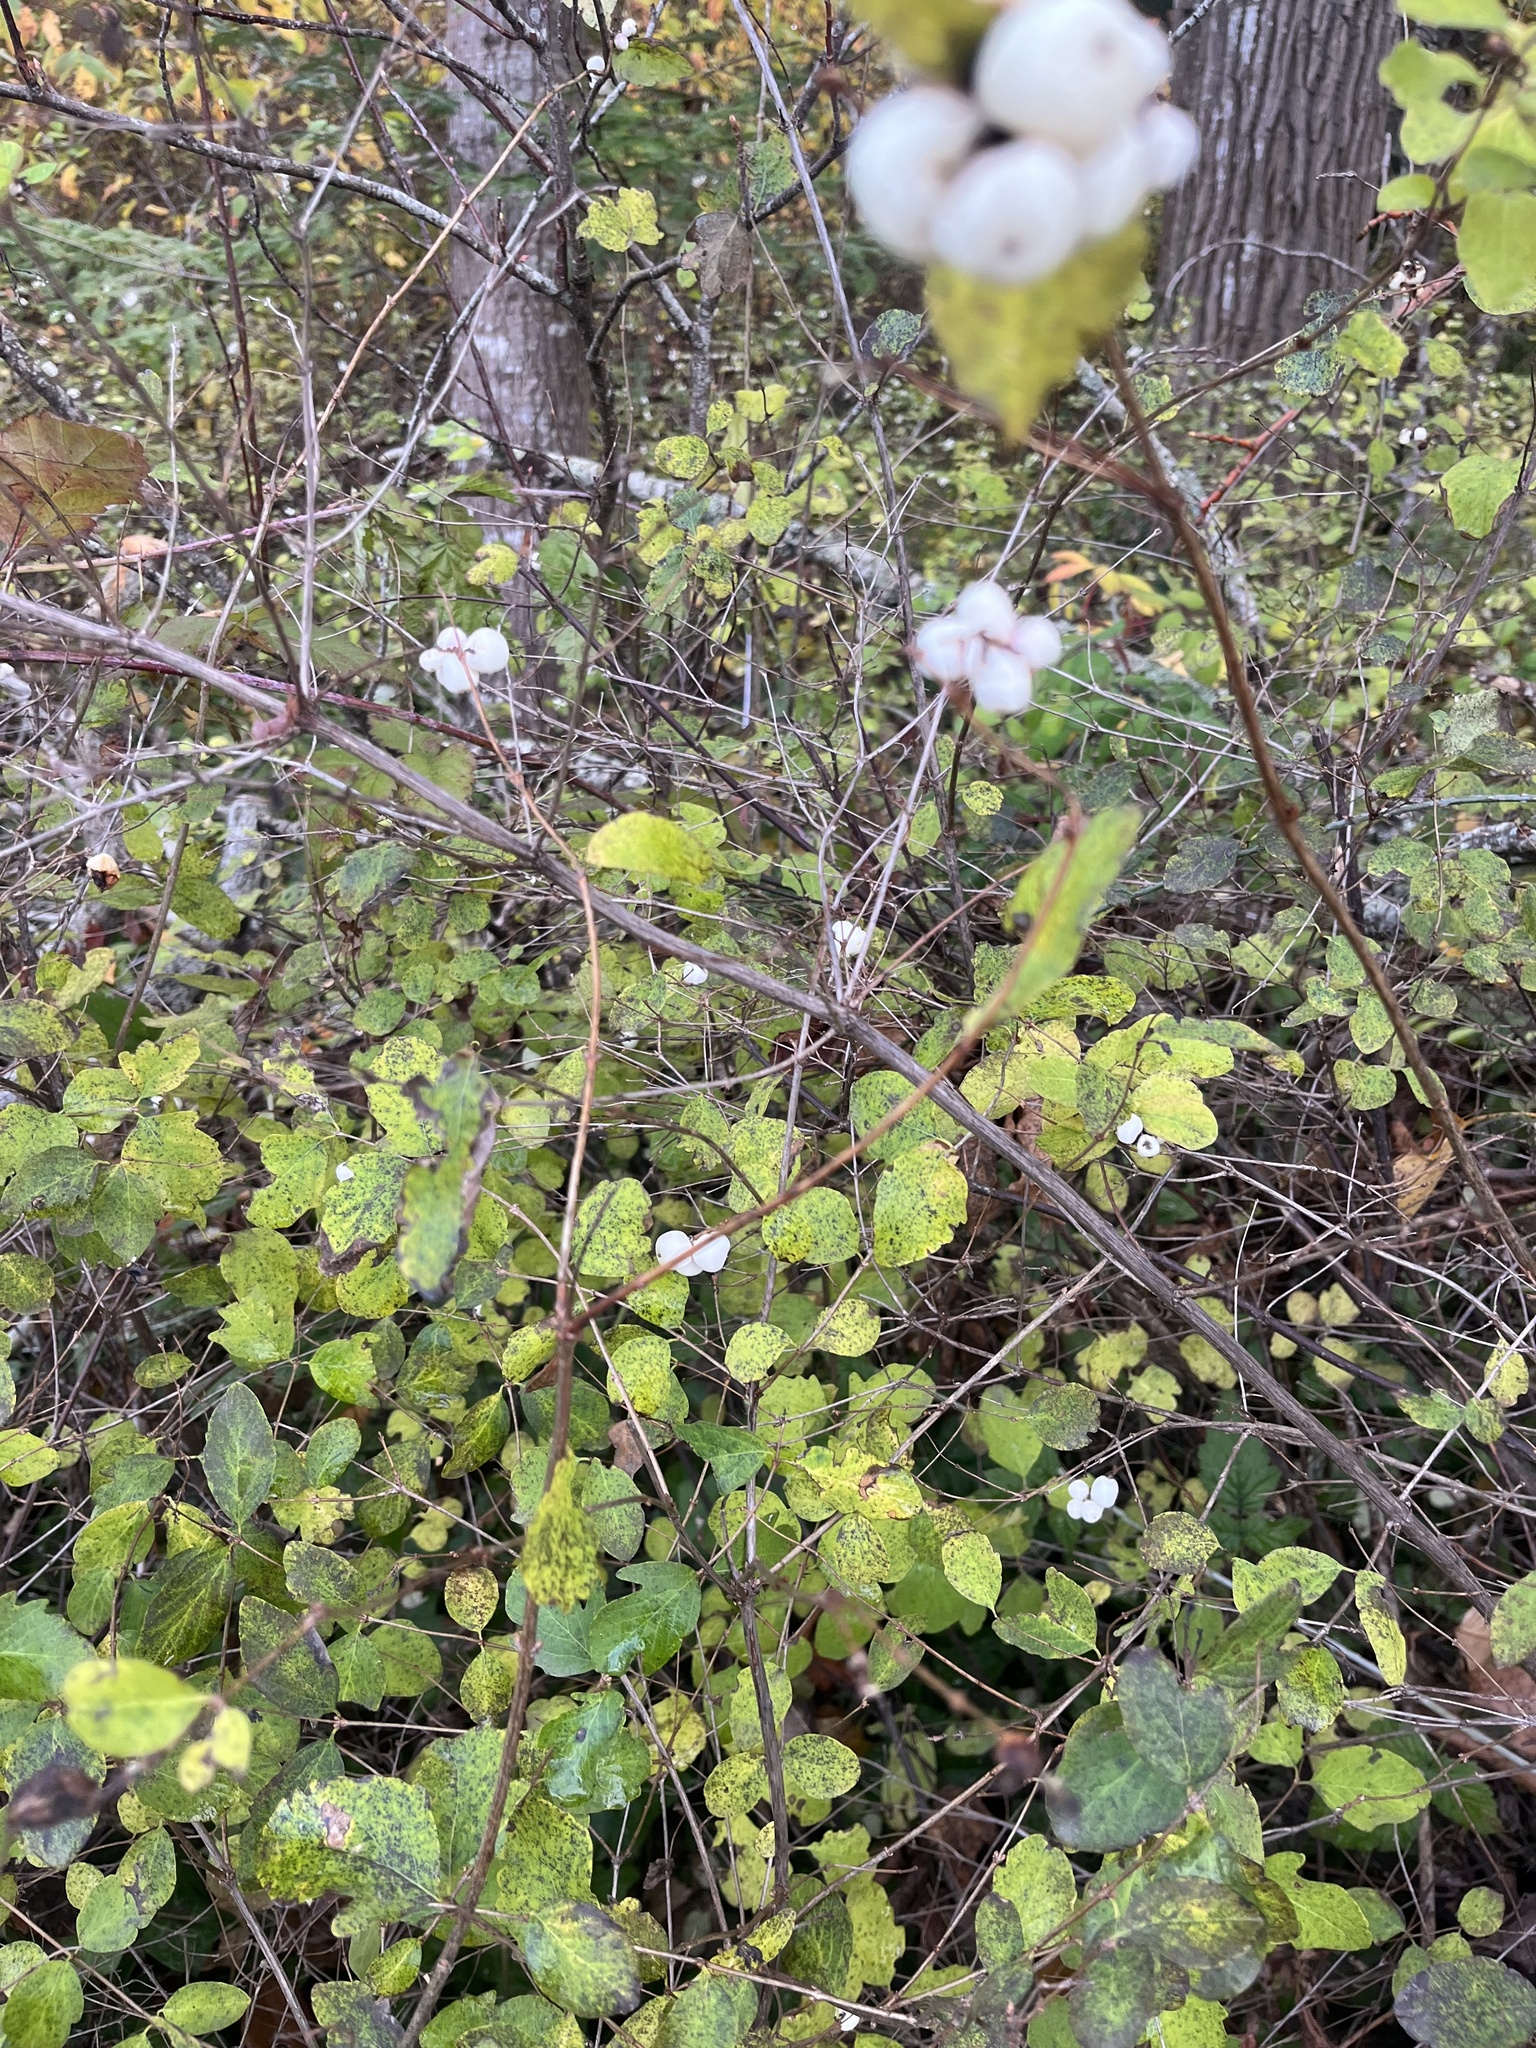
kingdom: Plantae
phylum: Tracheophyta
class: Magnoliopsida
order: Dipsacales
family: Caprifoliaceae
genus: Symphoricarpos
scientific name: Symphoricarpos albus
